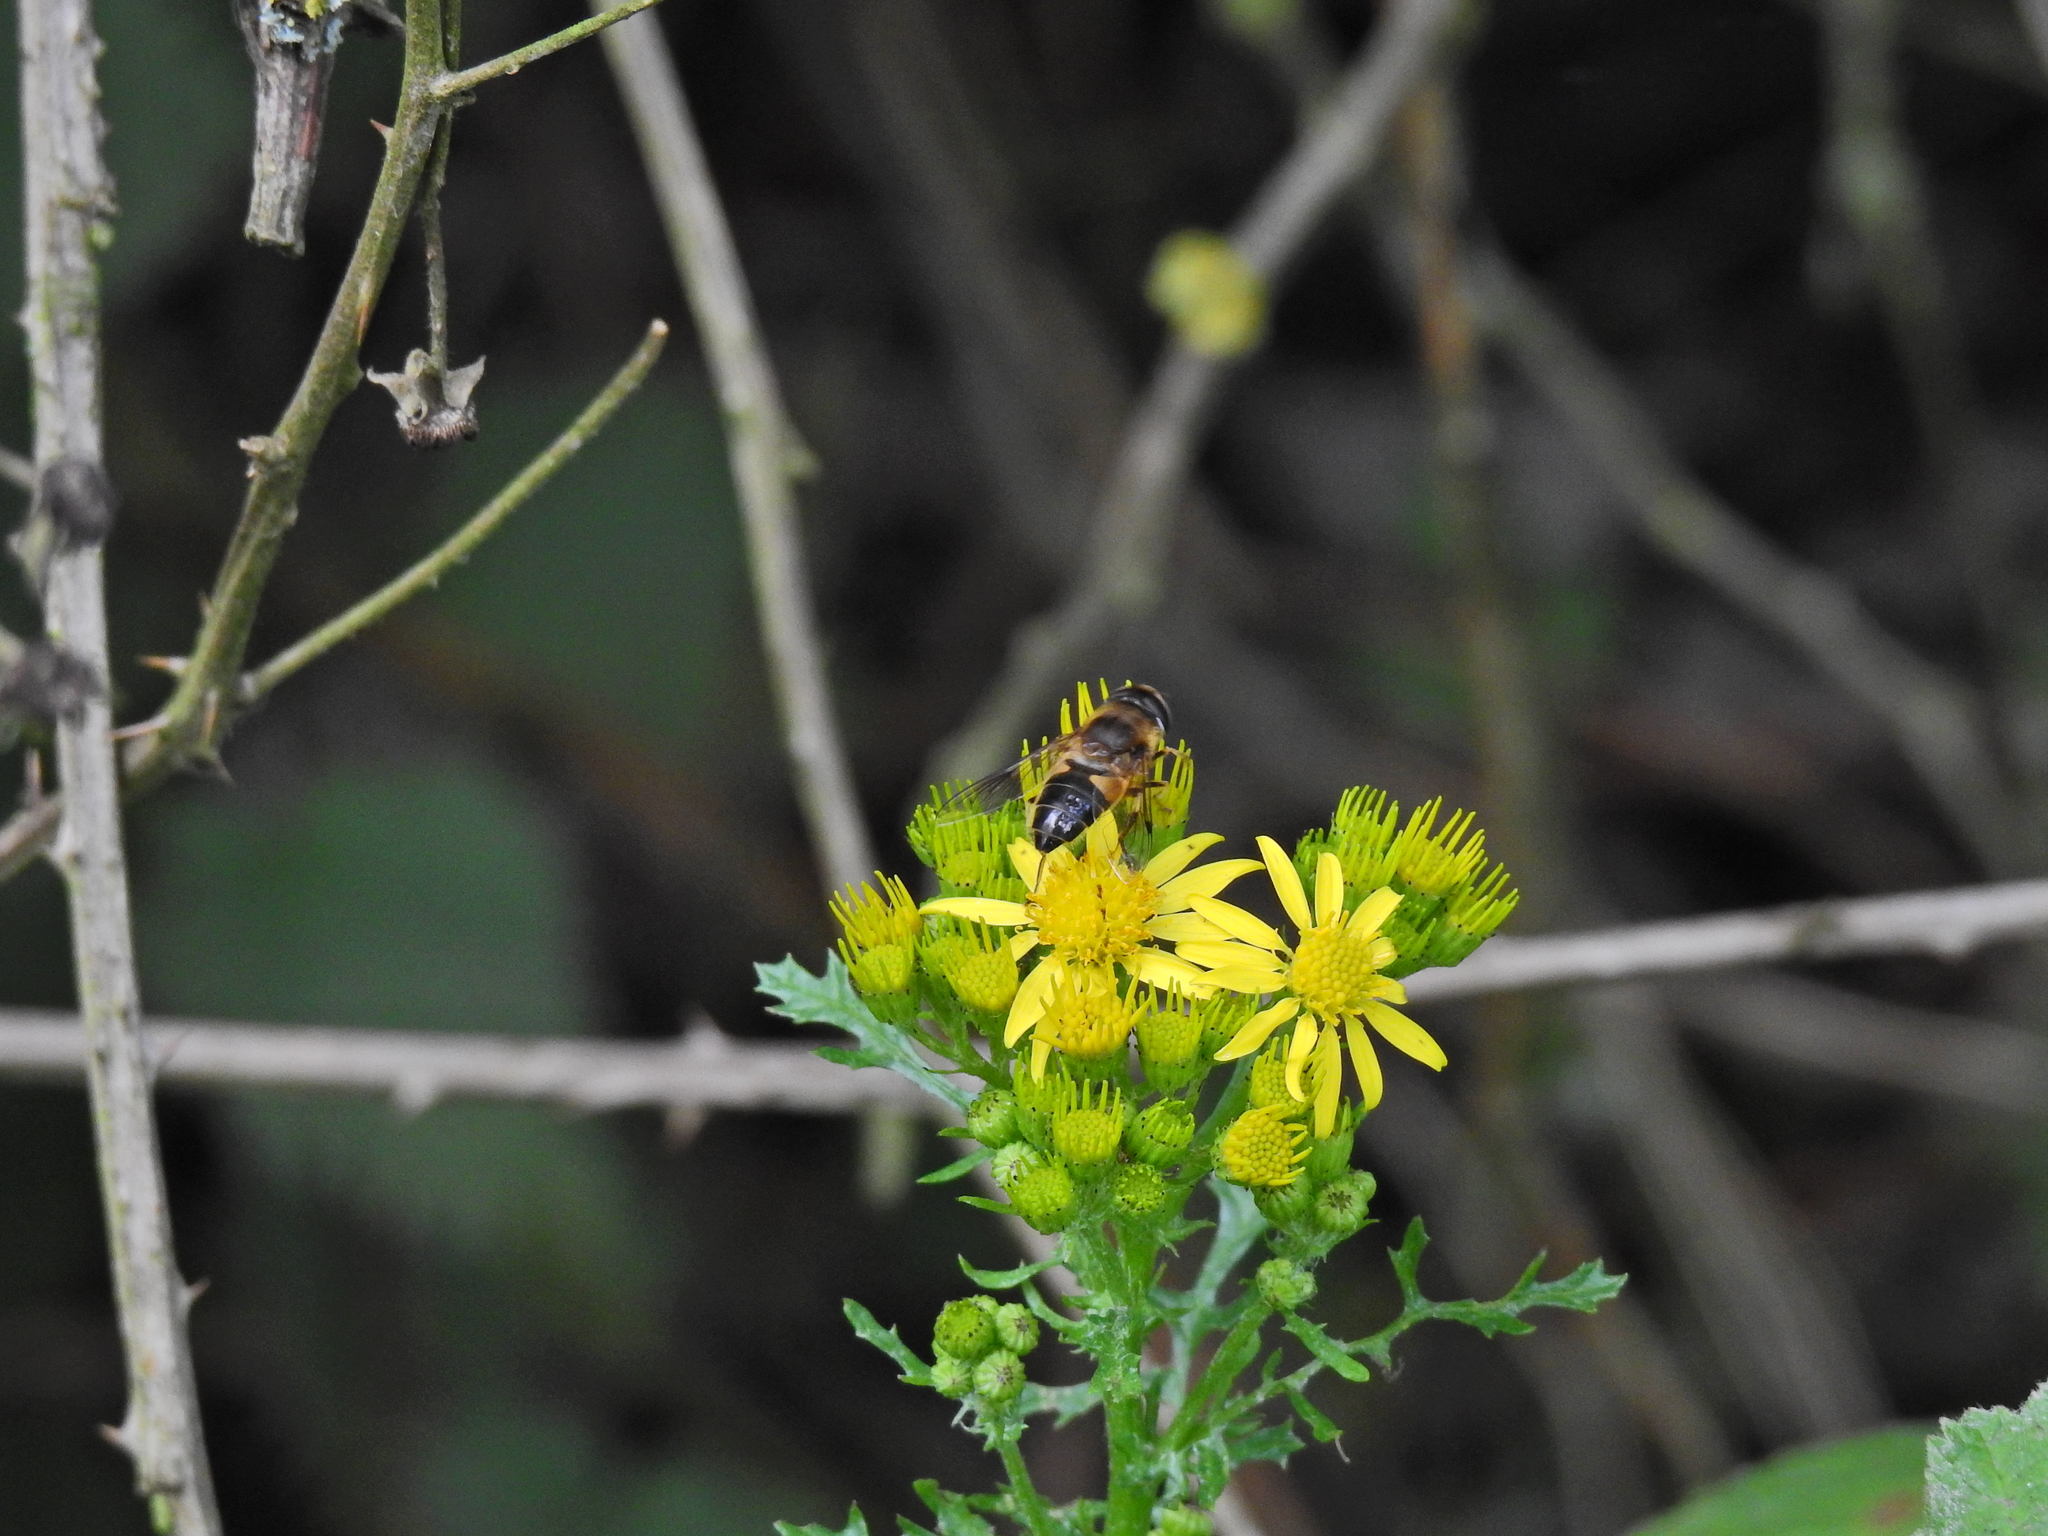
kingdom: Animalia
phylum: Arthropoda
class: Insecta
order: Diptera
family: Syrphidae
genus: Eristalis
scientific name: Eristalis pertinax
